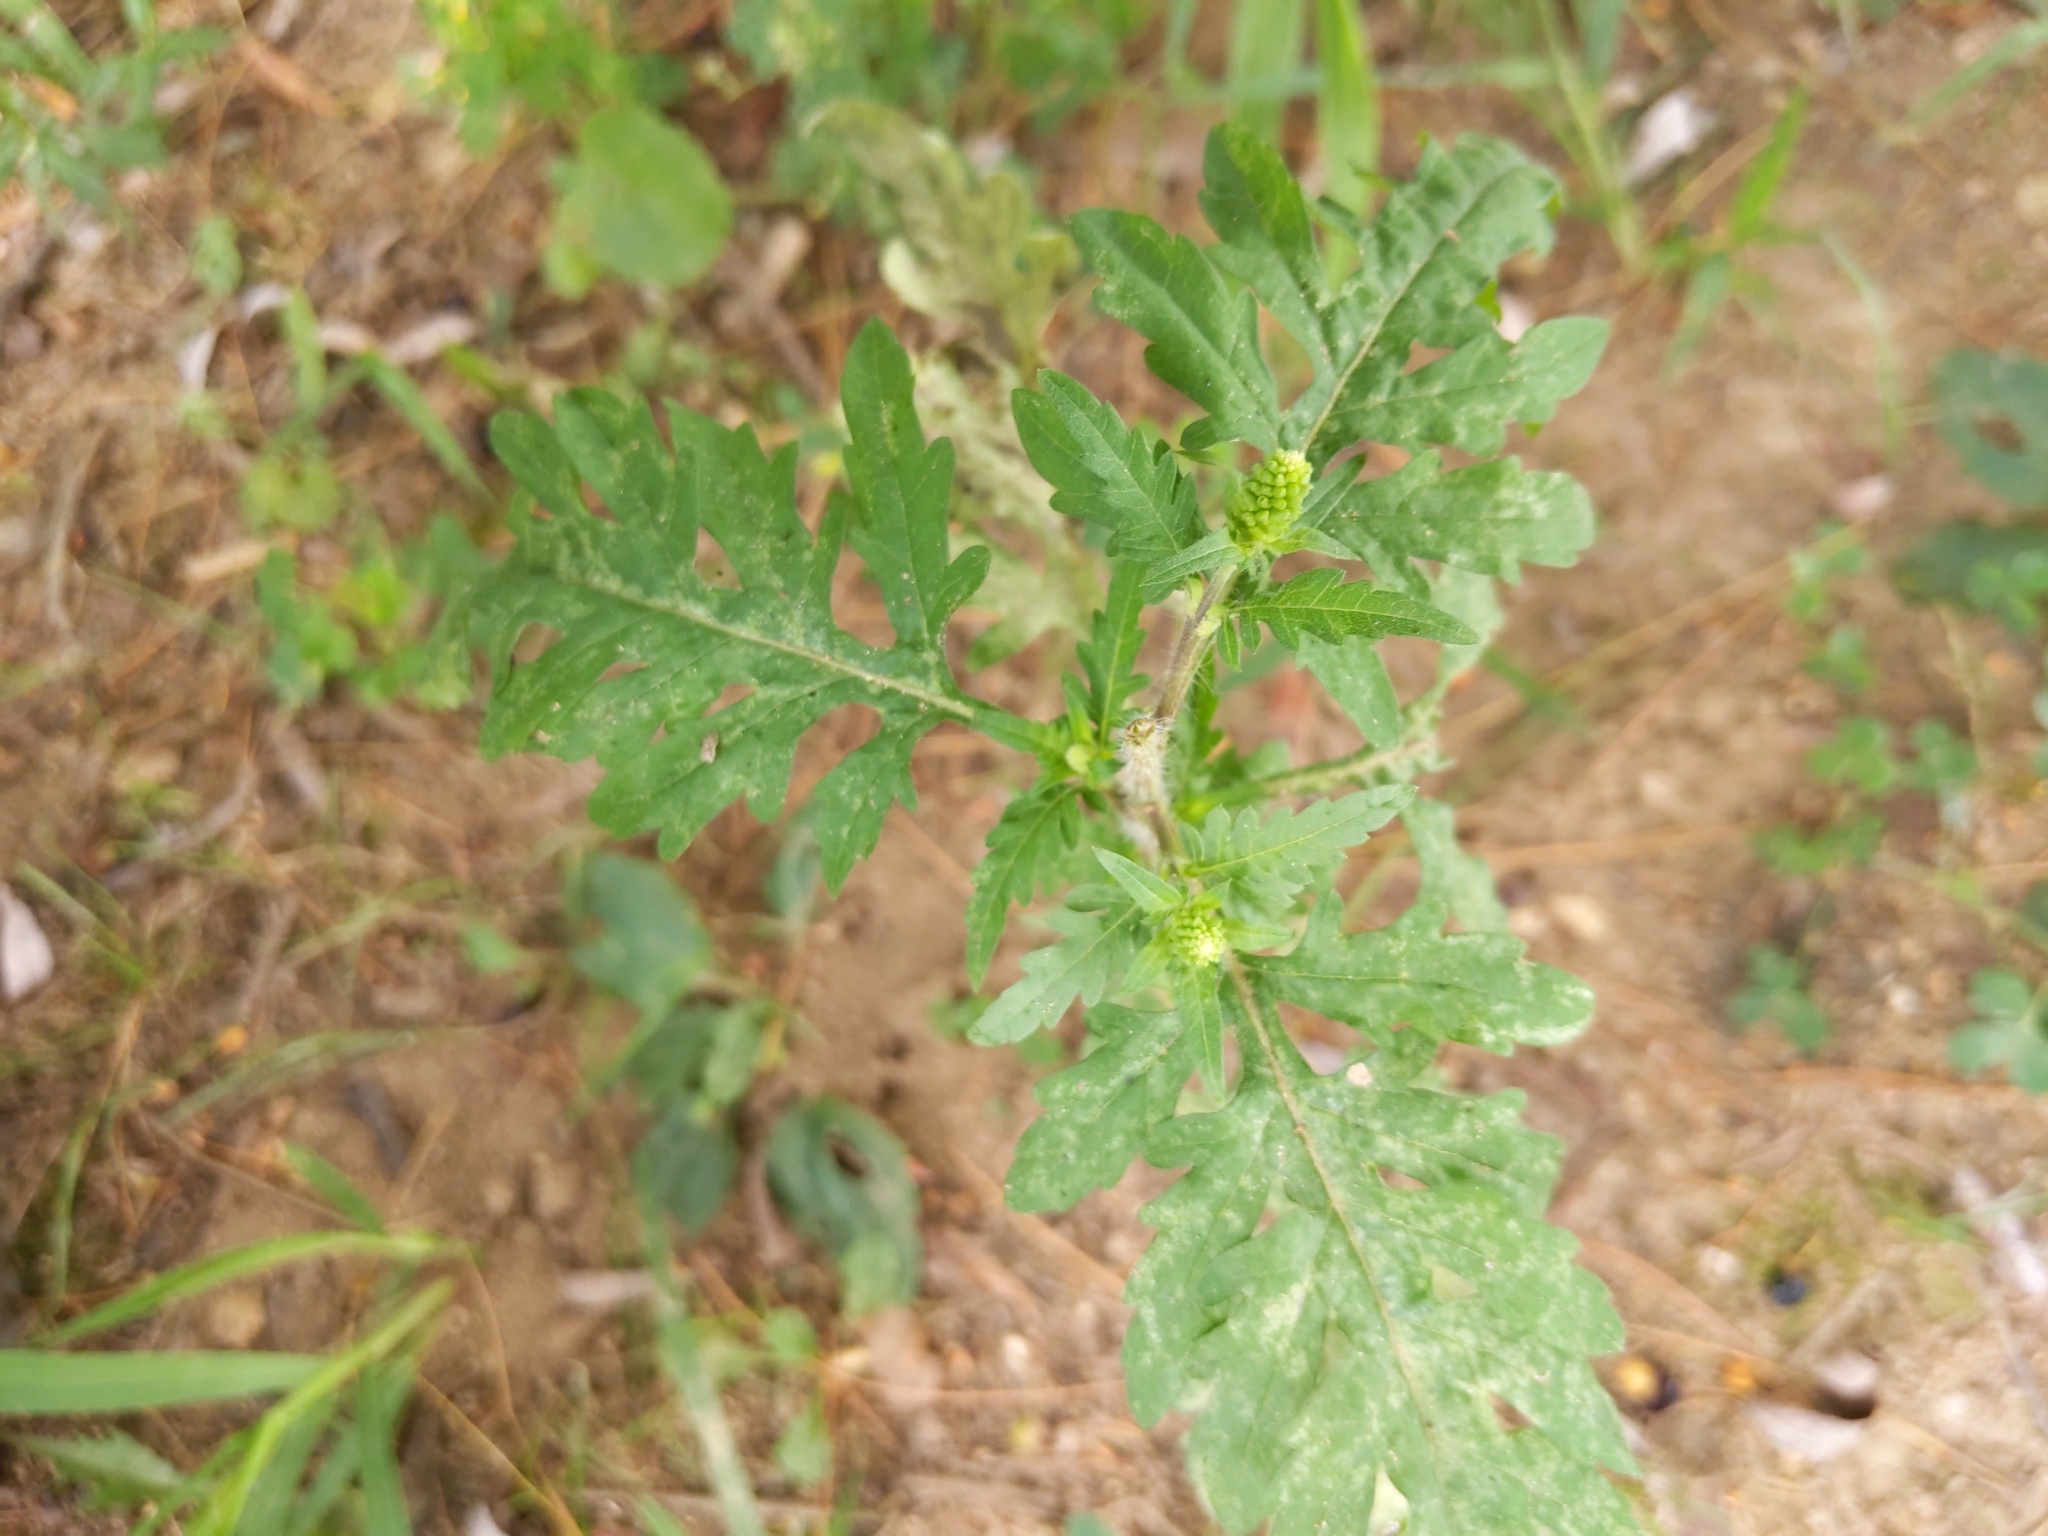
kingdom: Plantae
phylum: Tracheophyta
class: Magnoliopsida
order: Asterales
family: Asteraceae
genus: Ambrosia
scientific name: Ambrosia artemisiifolia
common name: Annual ragweed
